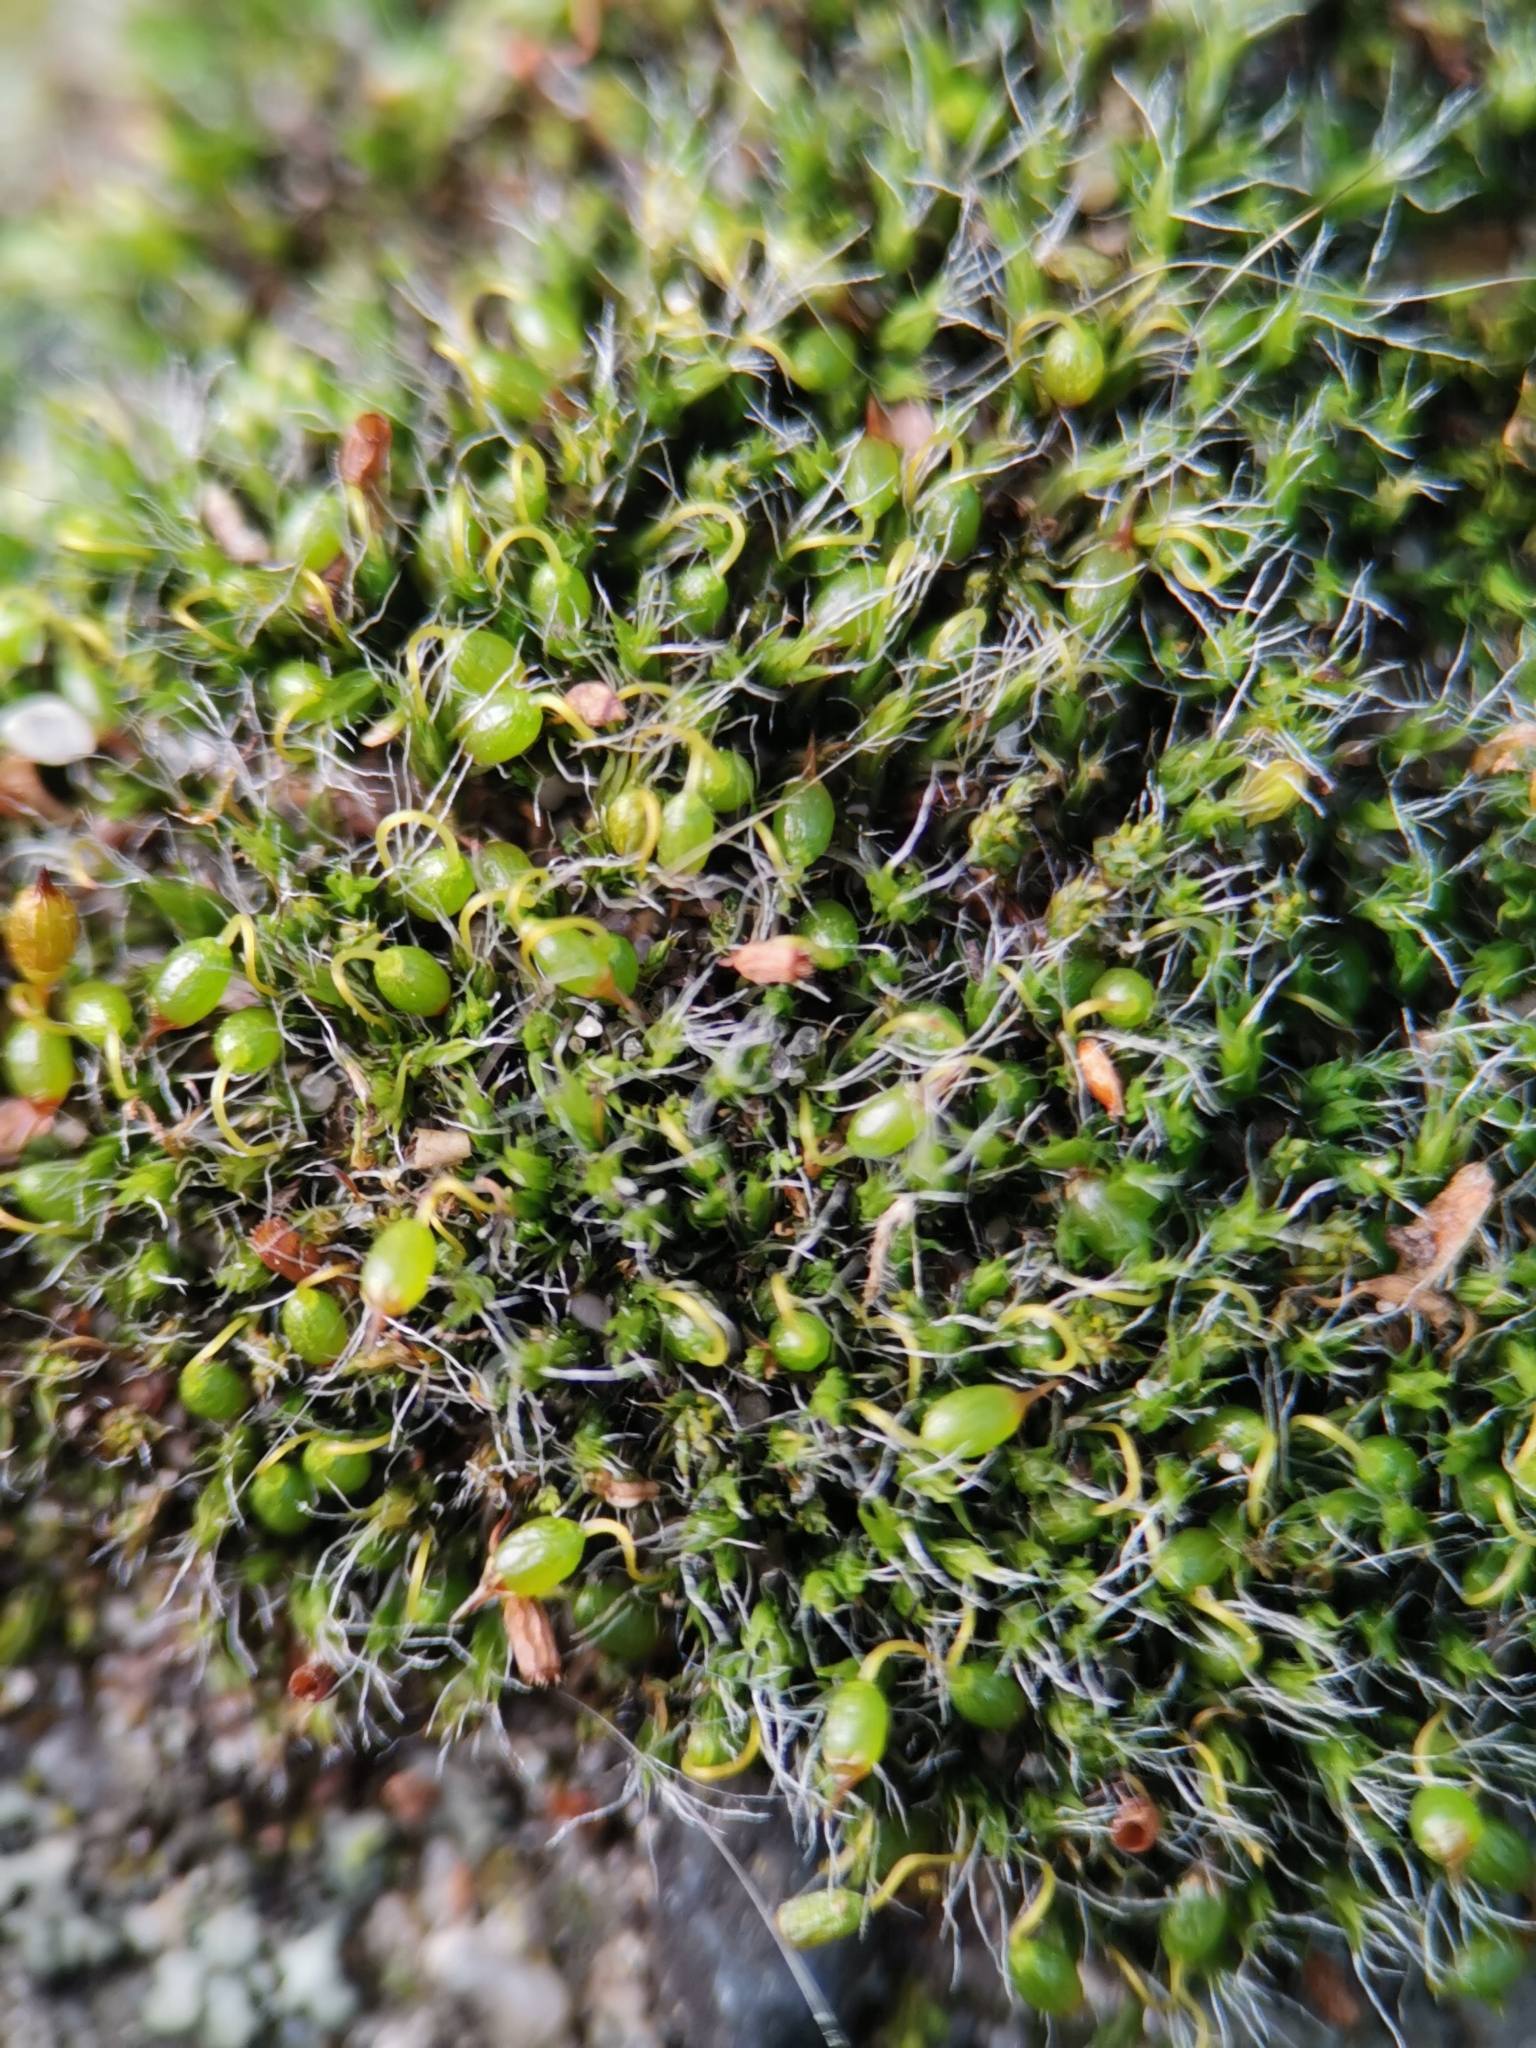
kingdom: Plantae
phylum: Bryophyta
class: Bryopsida
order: Grimmiales
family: Grimmiaceae
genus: Grimmia
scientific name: Grimmia pulvinata
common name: Grey-cushioned grimmia
